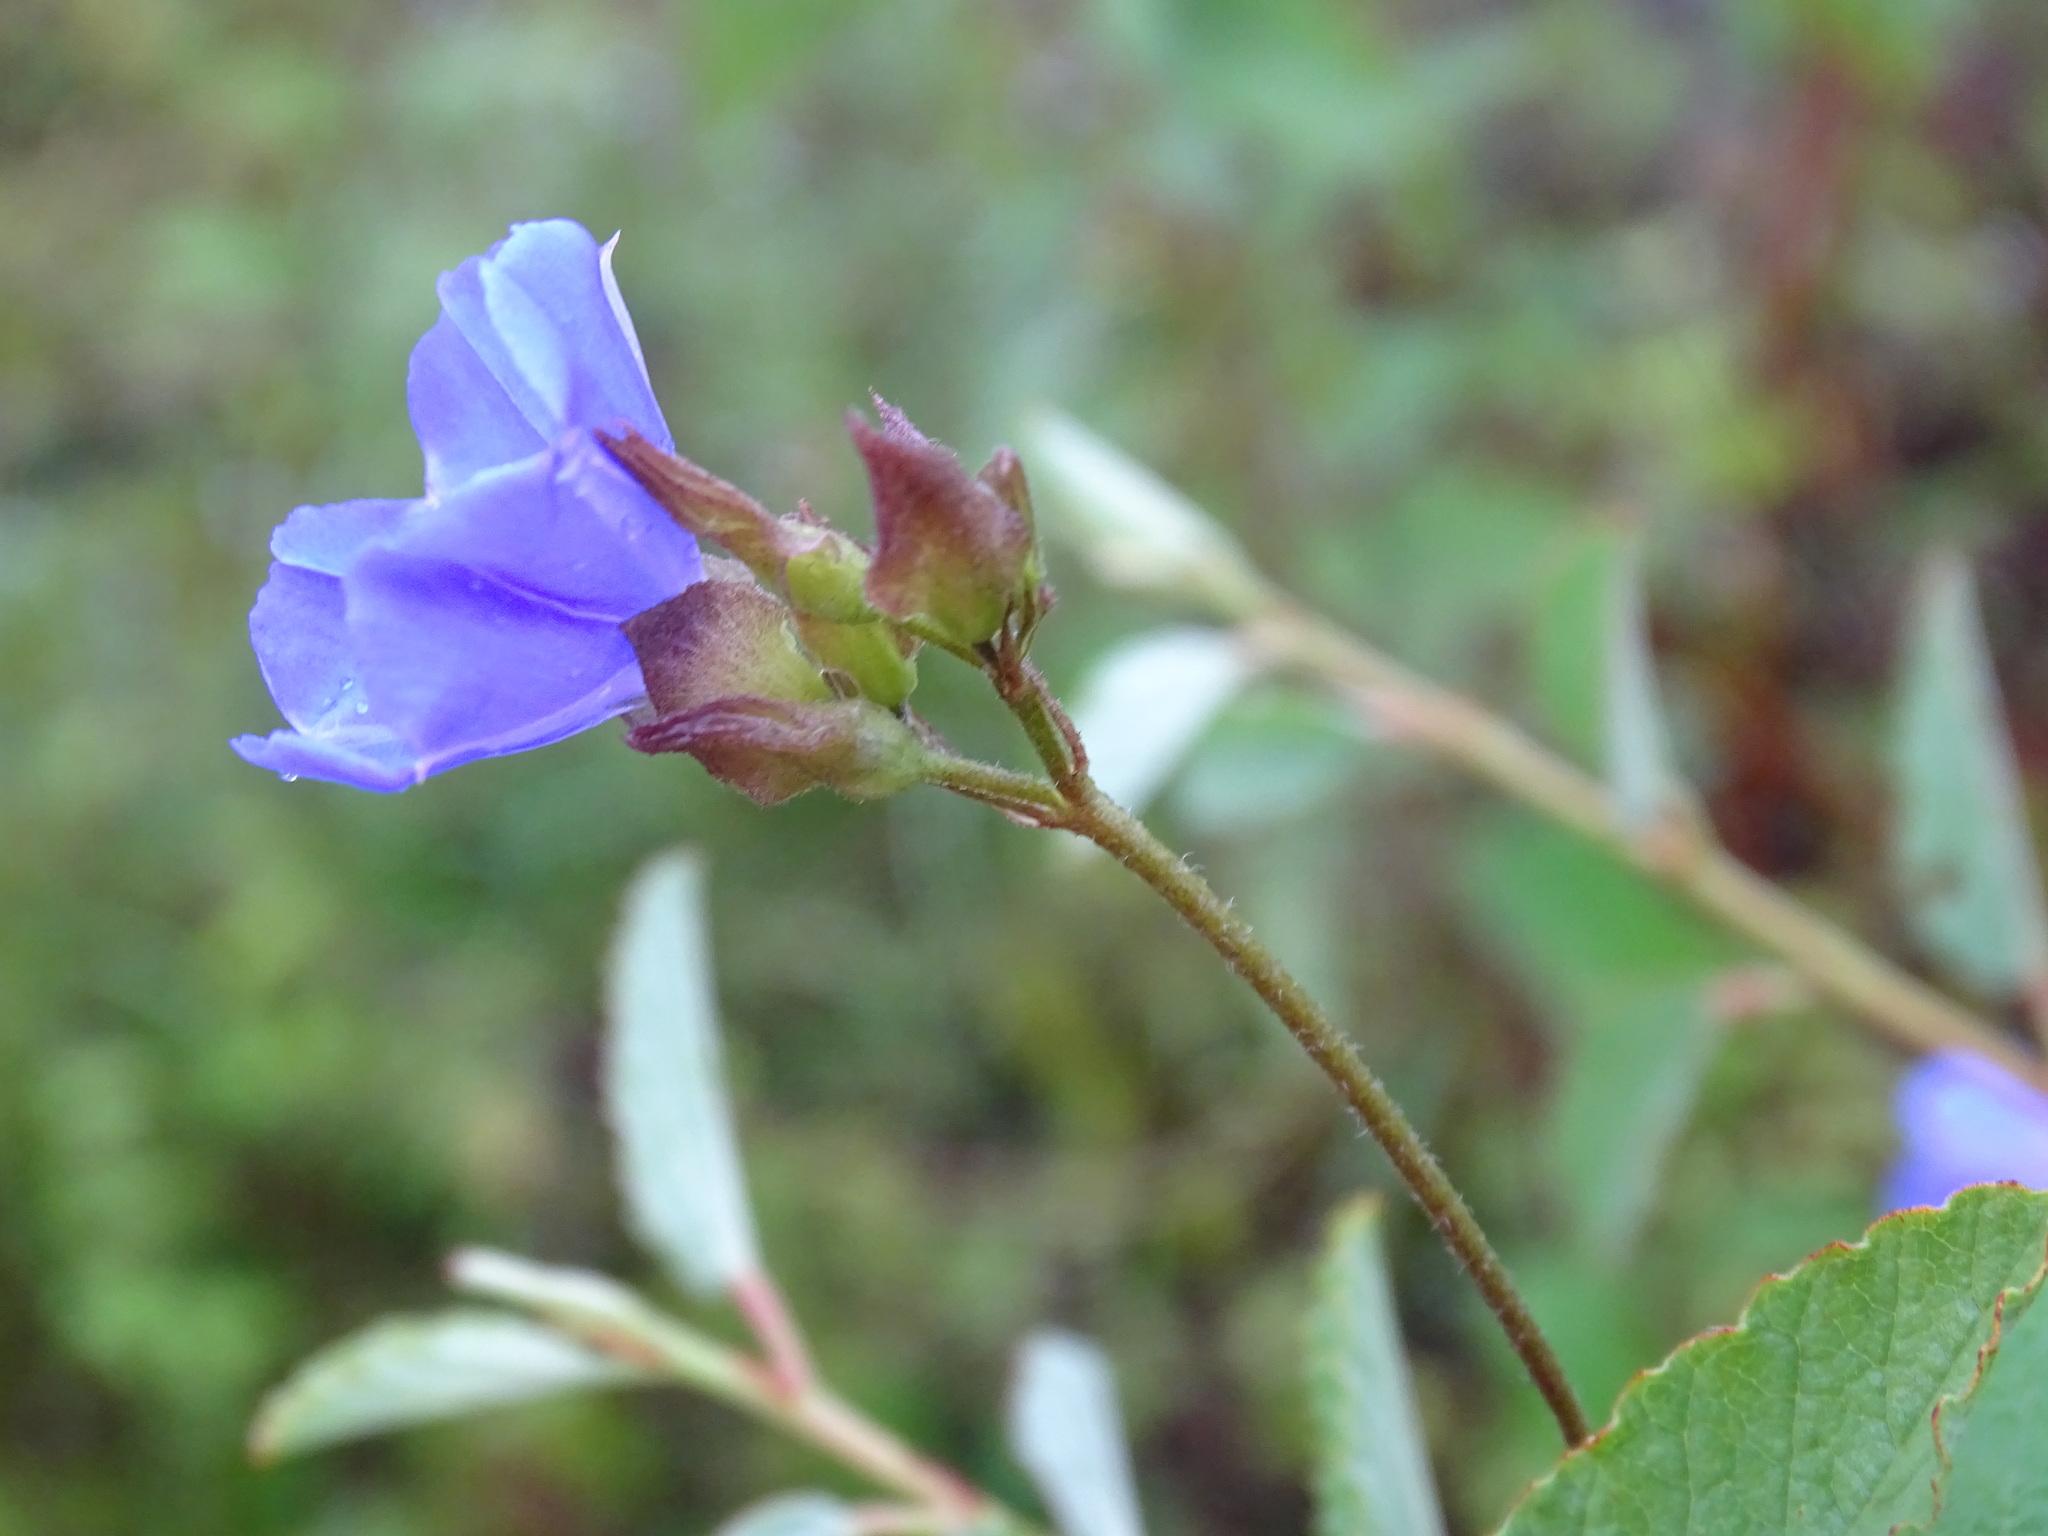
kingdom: Plantae
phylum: Tracheophyta
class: Magnoliopsida
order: Solanales
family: Convolvulaceae
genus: Jacquemontia
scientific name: Jacquemontia pentanthos
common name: Skyblue clustervine
